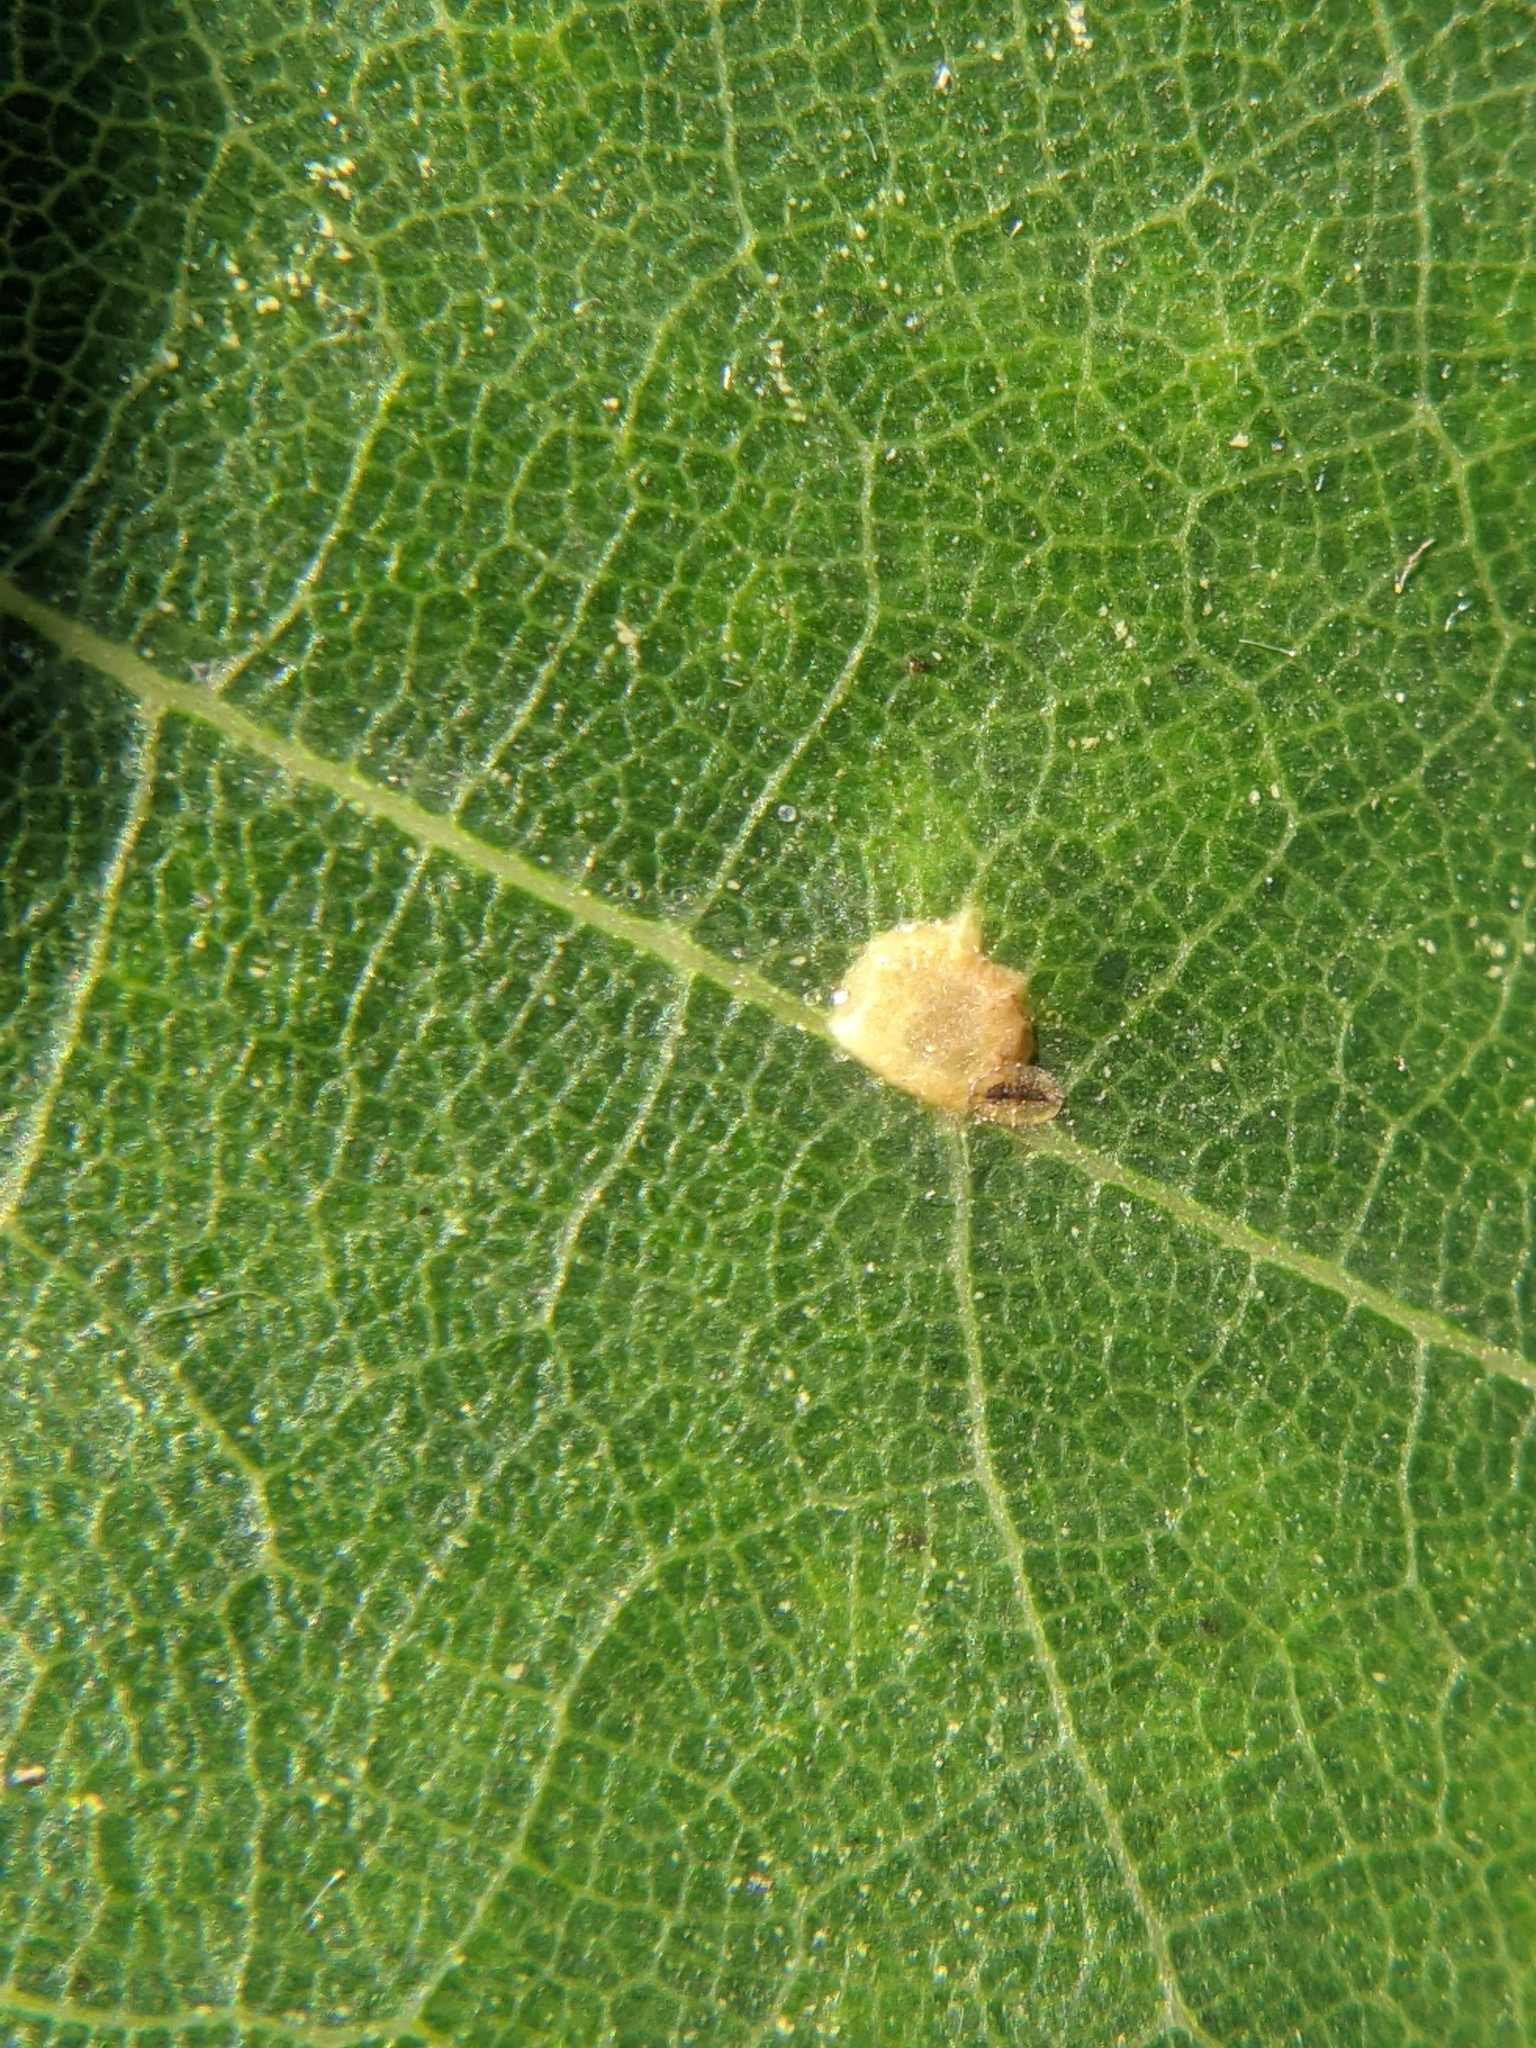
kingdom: Animalia
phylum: Arthropoda
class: Insecta
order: Diptera
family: Cecidomyiidae
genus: Polystepha
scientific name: Polystepha globosa
